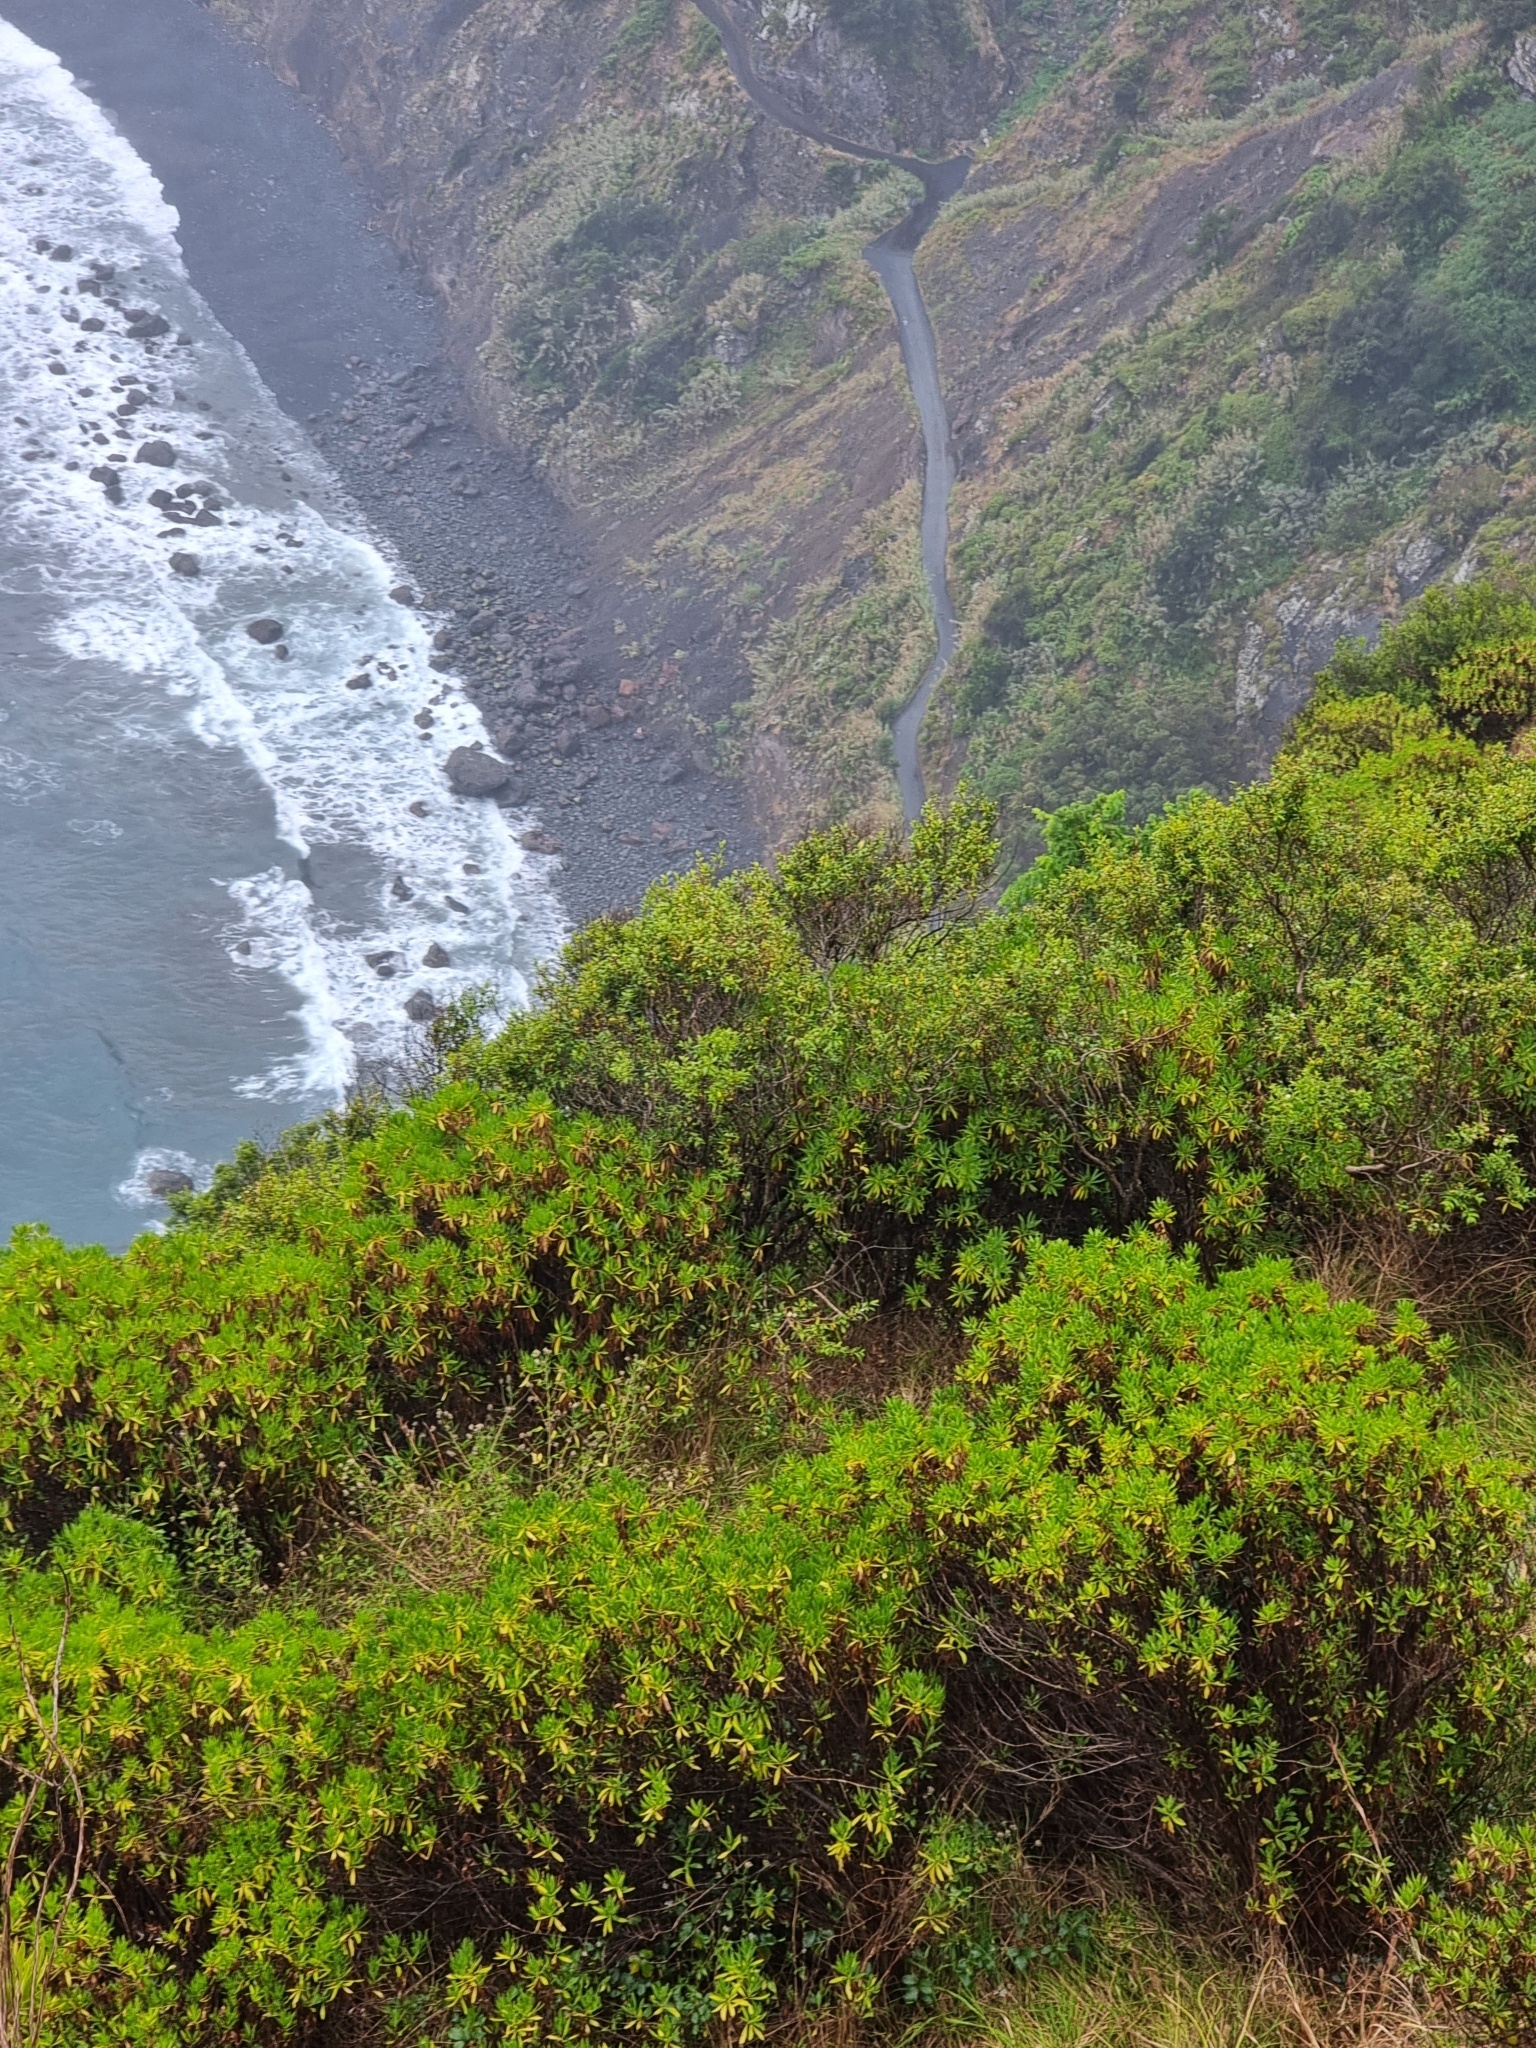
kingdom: Plantae
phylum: Tracheophyta
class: Magnoliopsida
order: Lamiales
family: Plantaginaceae
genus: Globularia
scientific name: Globularia salicina
